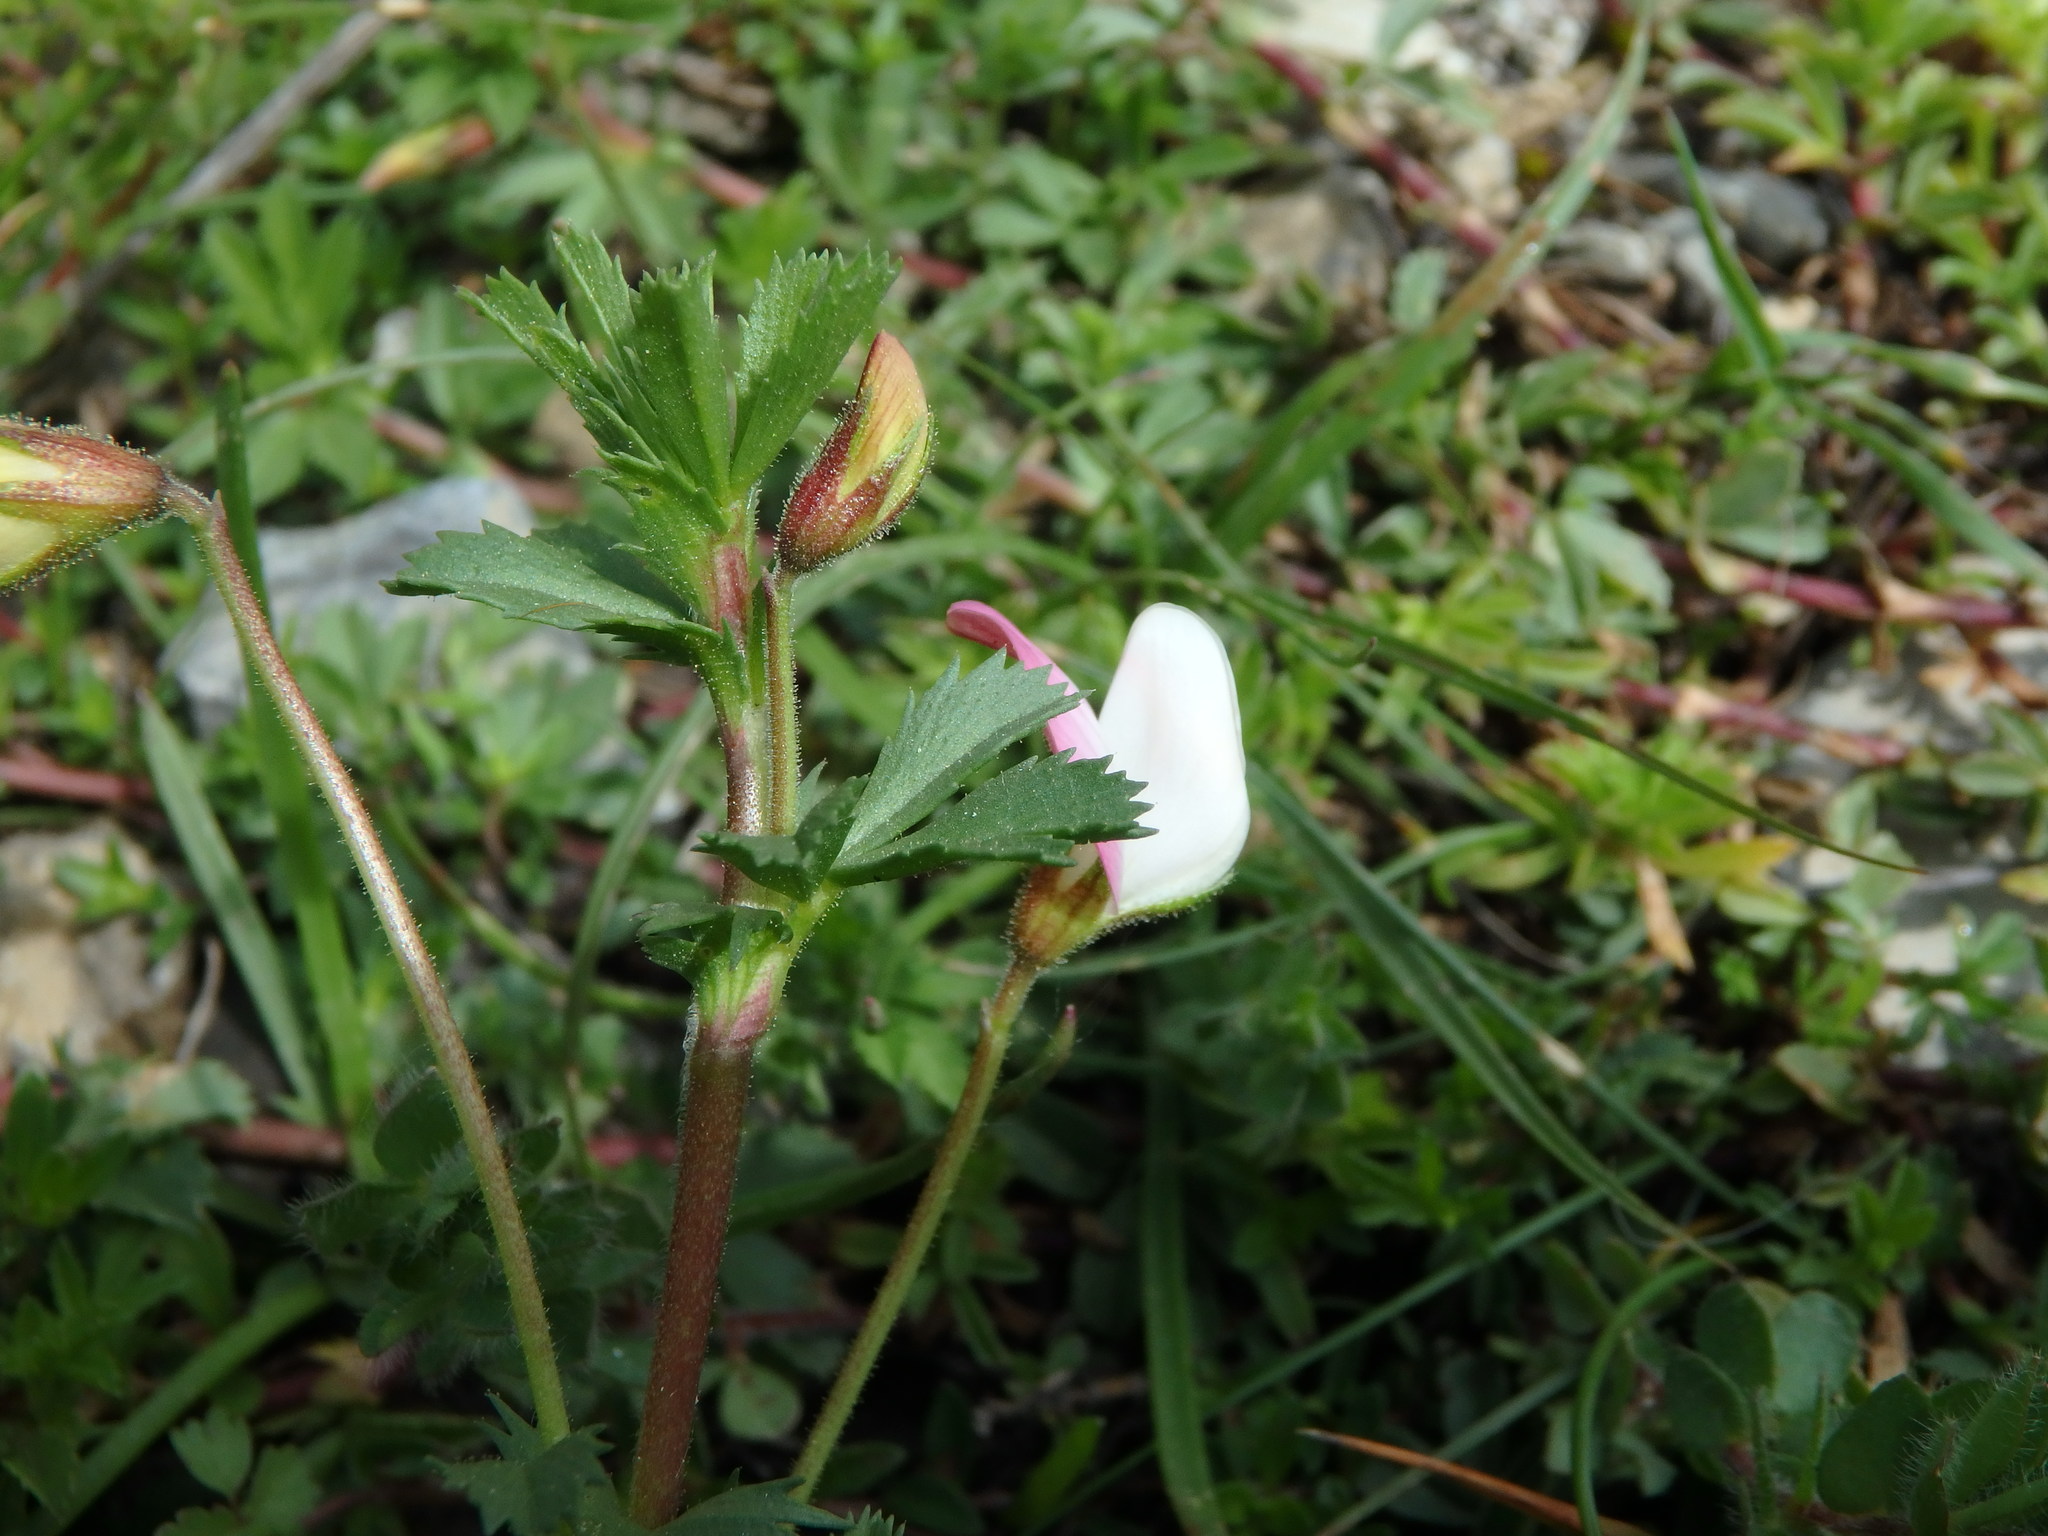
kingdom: Plantae
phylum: Tracheophyta
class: Magnoliopsida
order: Fabales
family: Fabaceae
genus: Ononis
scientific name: Ononis cristata
